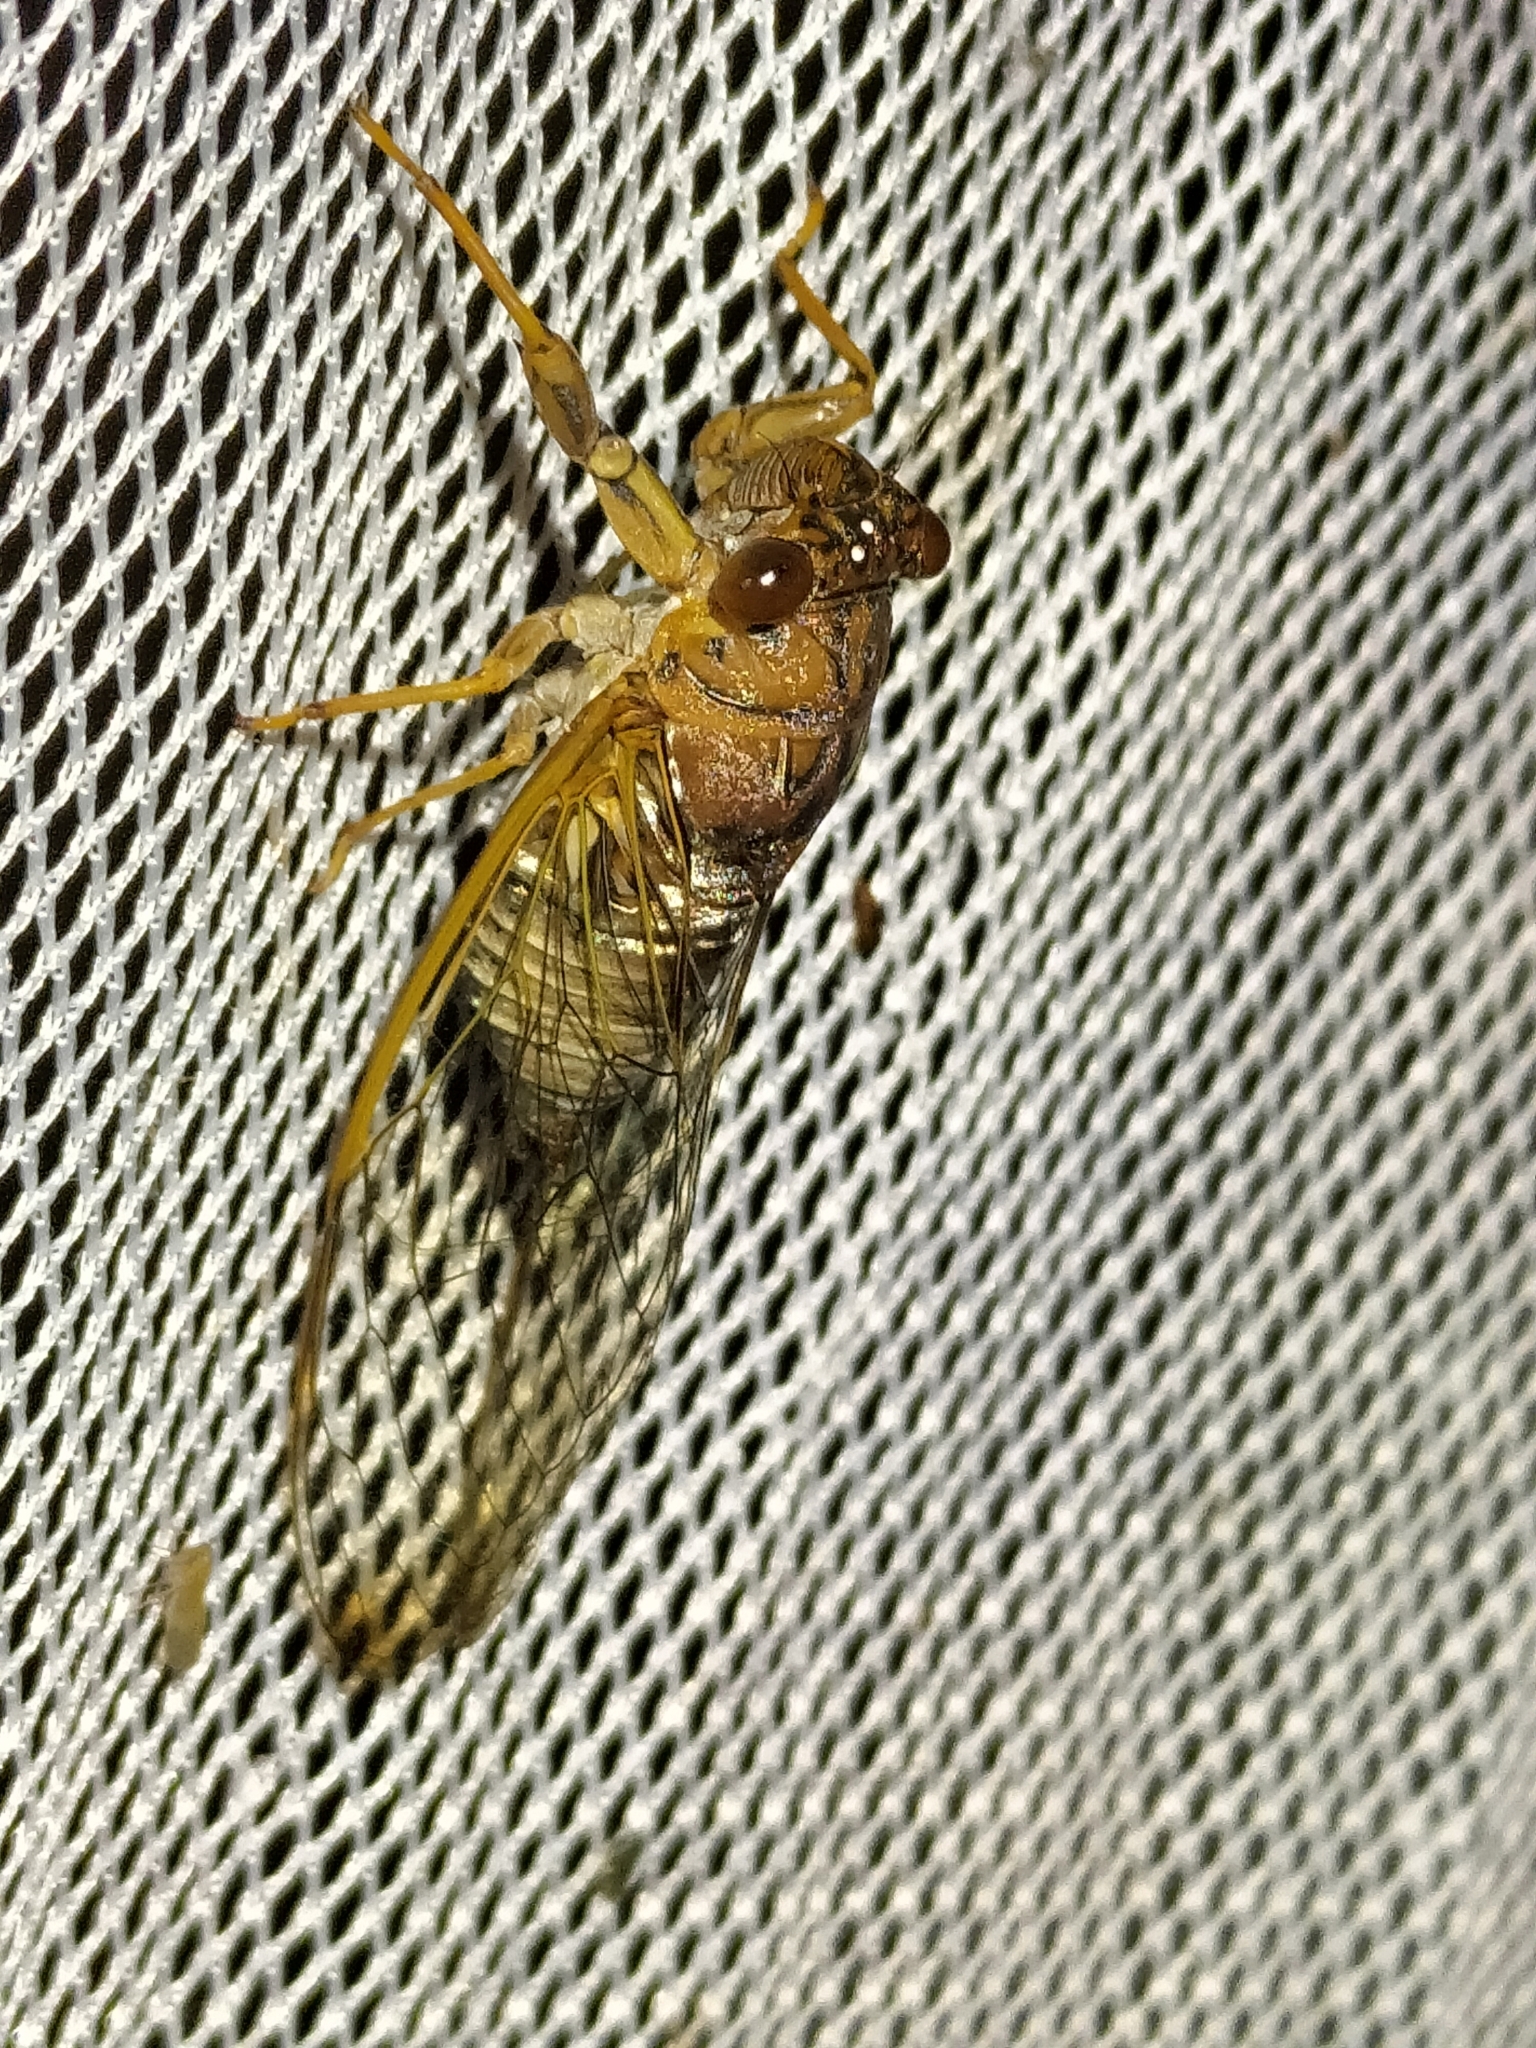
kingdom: Animalia
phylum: Arthropoda
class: Insecta
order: Hemiptera
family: Cicadidae
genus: Tamasa
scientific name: Tamasa doddi
